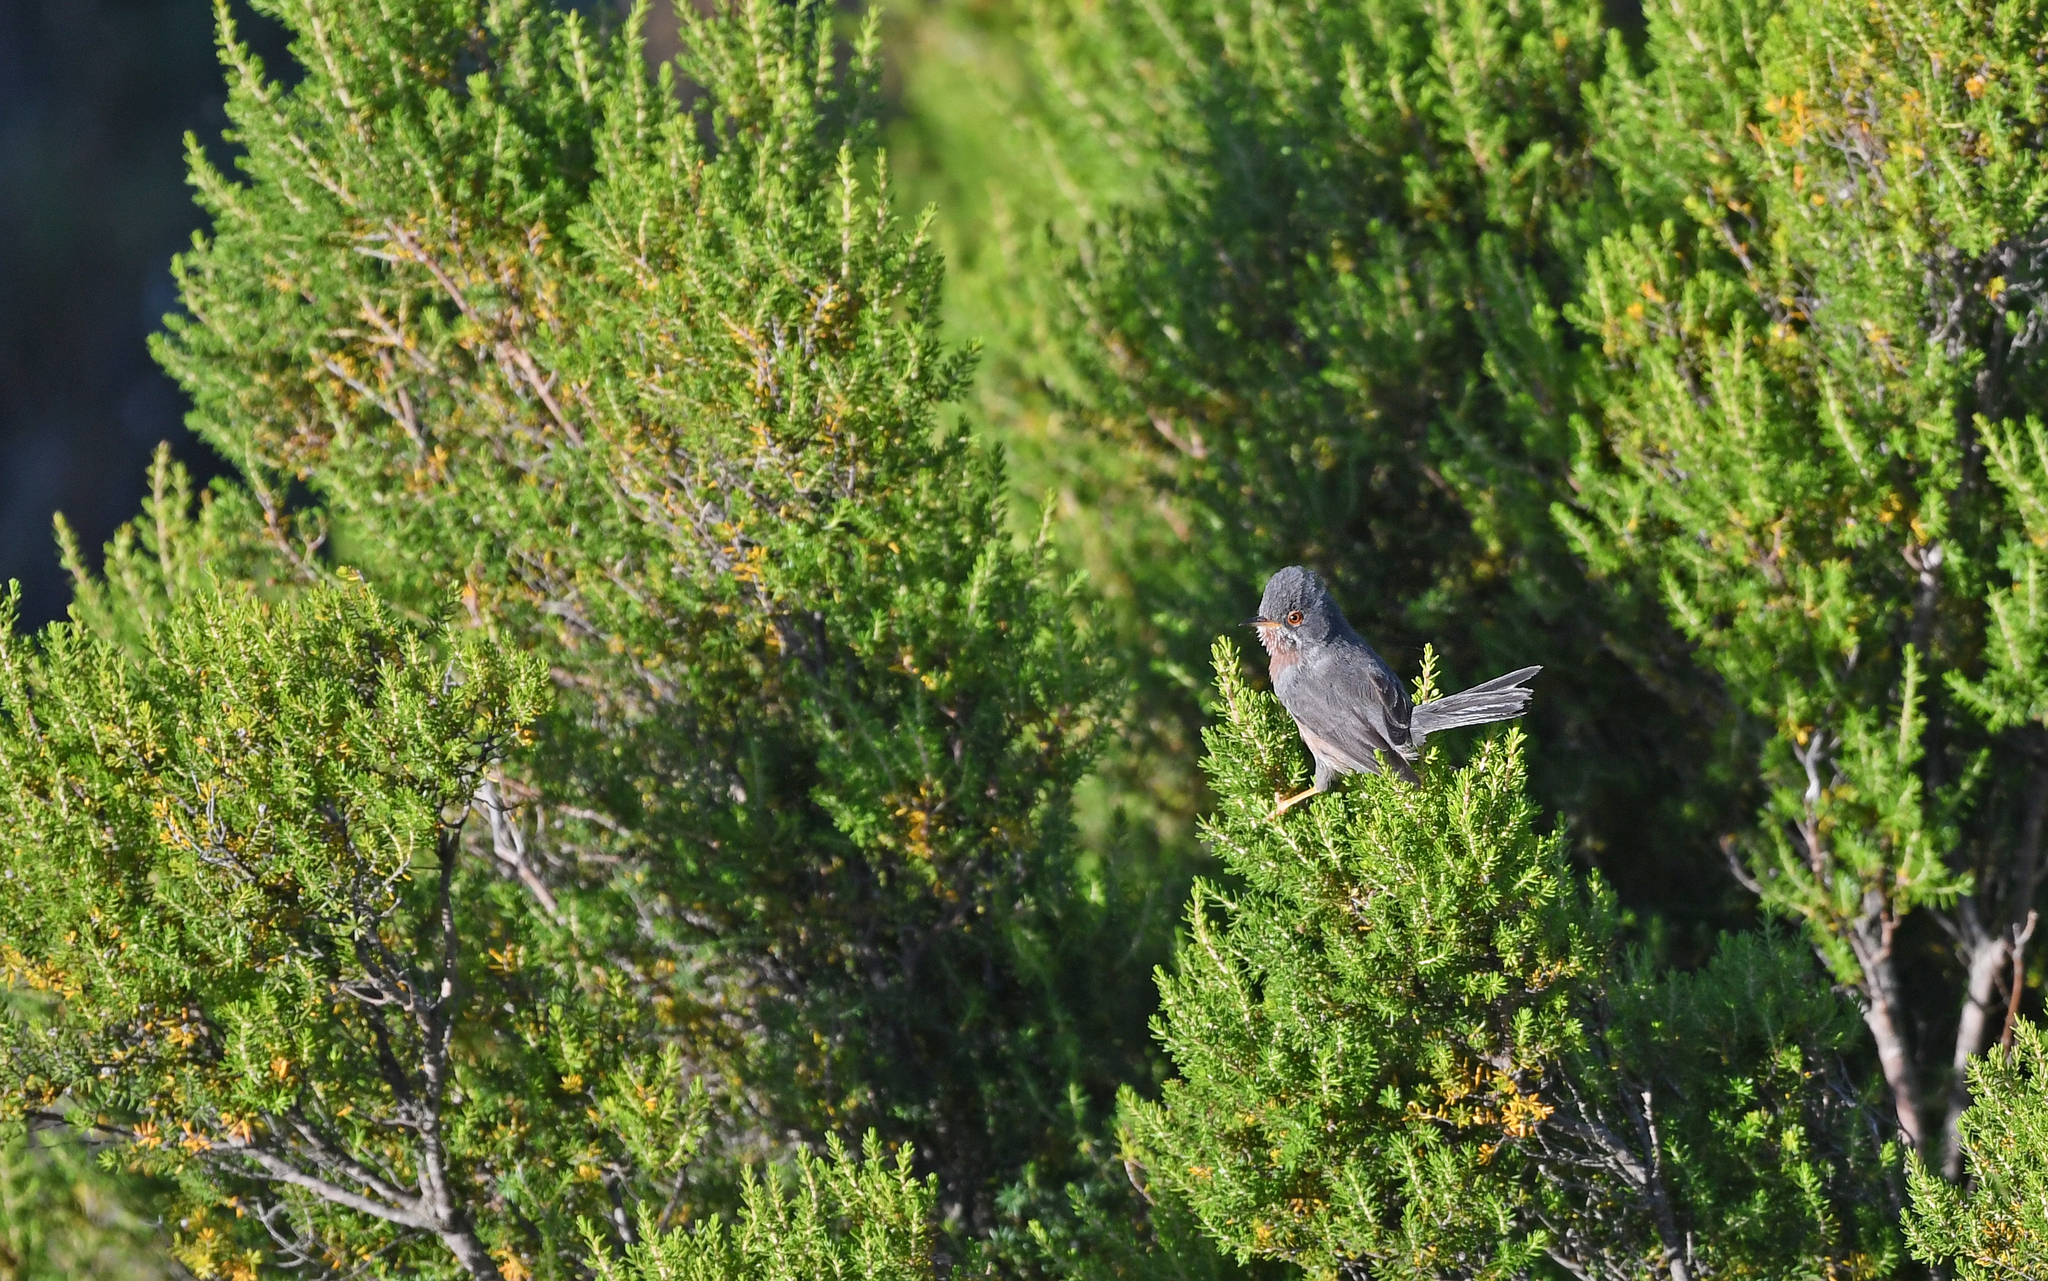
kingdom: Animalia
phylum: Chordata
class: Aves
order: Passeriformes
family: Sylviidae
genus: Sylvia
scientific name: Sylvia undata
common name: Dartford warbler
